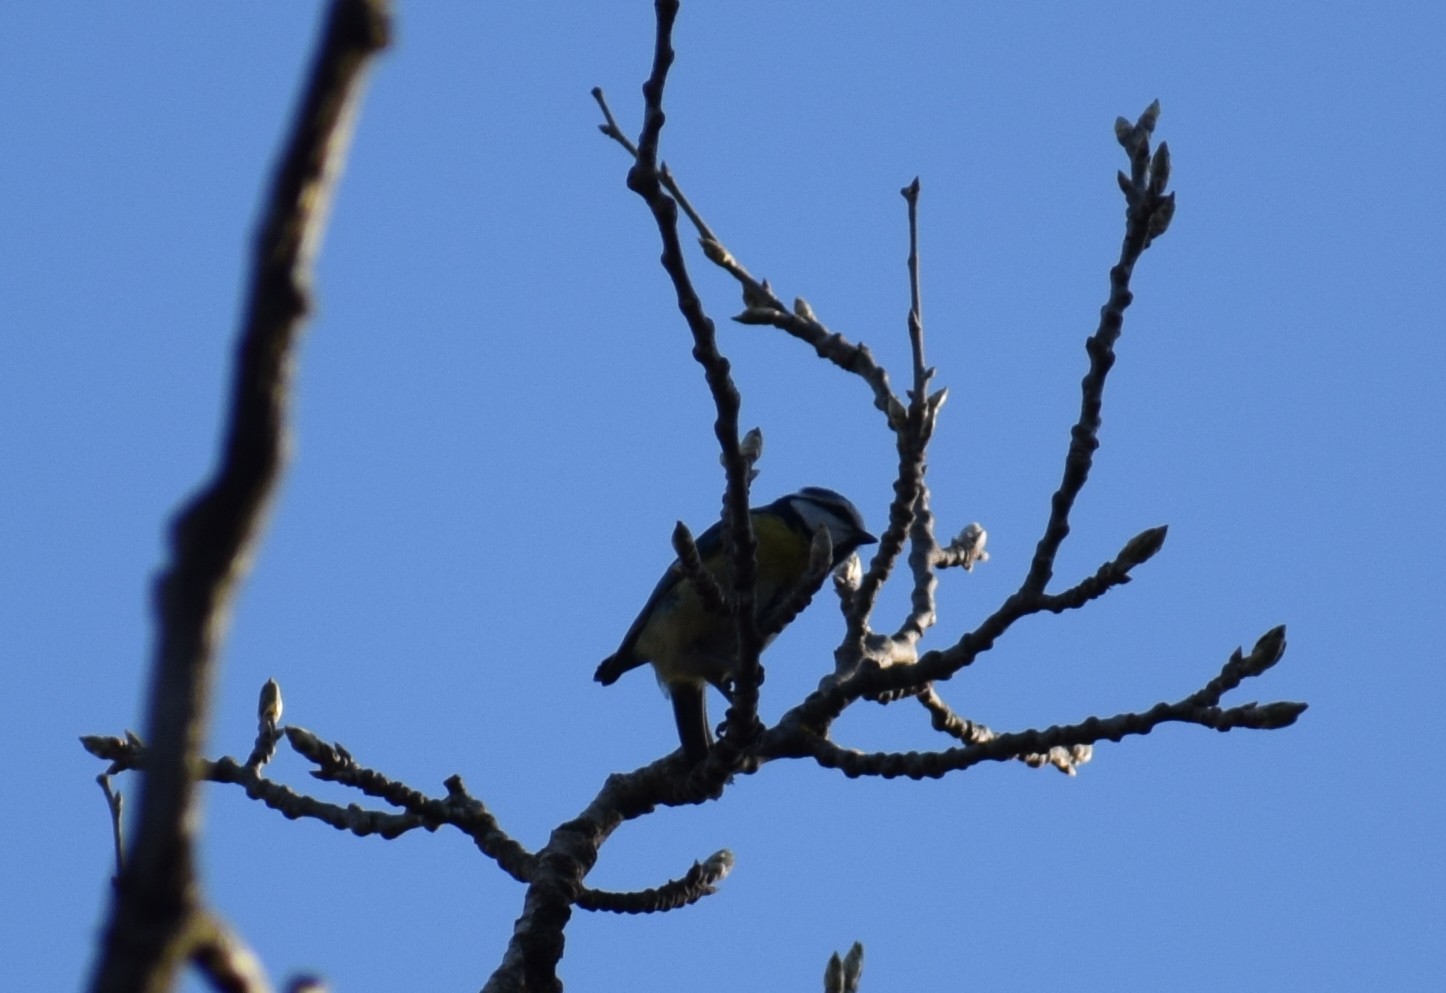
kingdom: Animalia
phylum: Chordata
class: Aves
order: Passeriformes
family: Paridae
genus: Cyanistes
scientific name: Cyanistes caeruleus
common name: Eurasian blue tit
